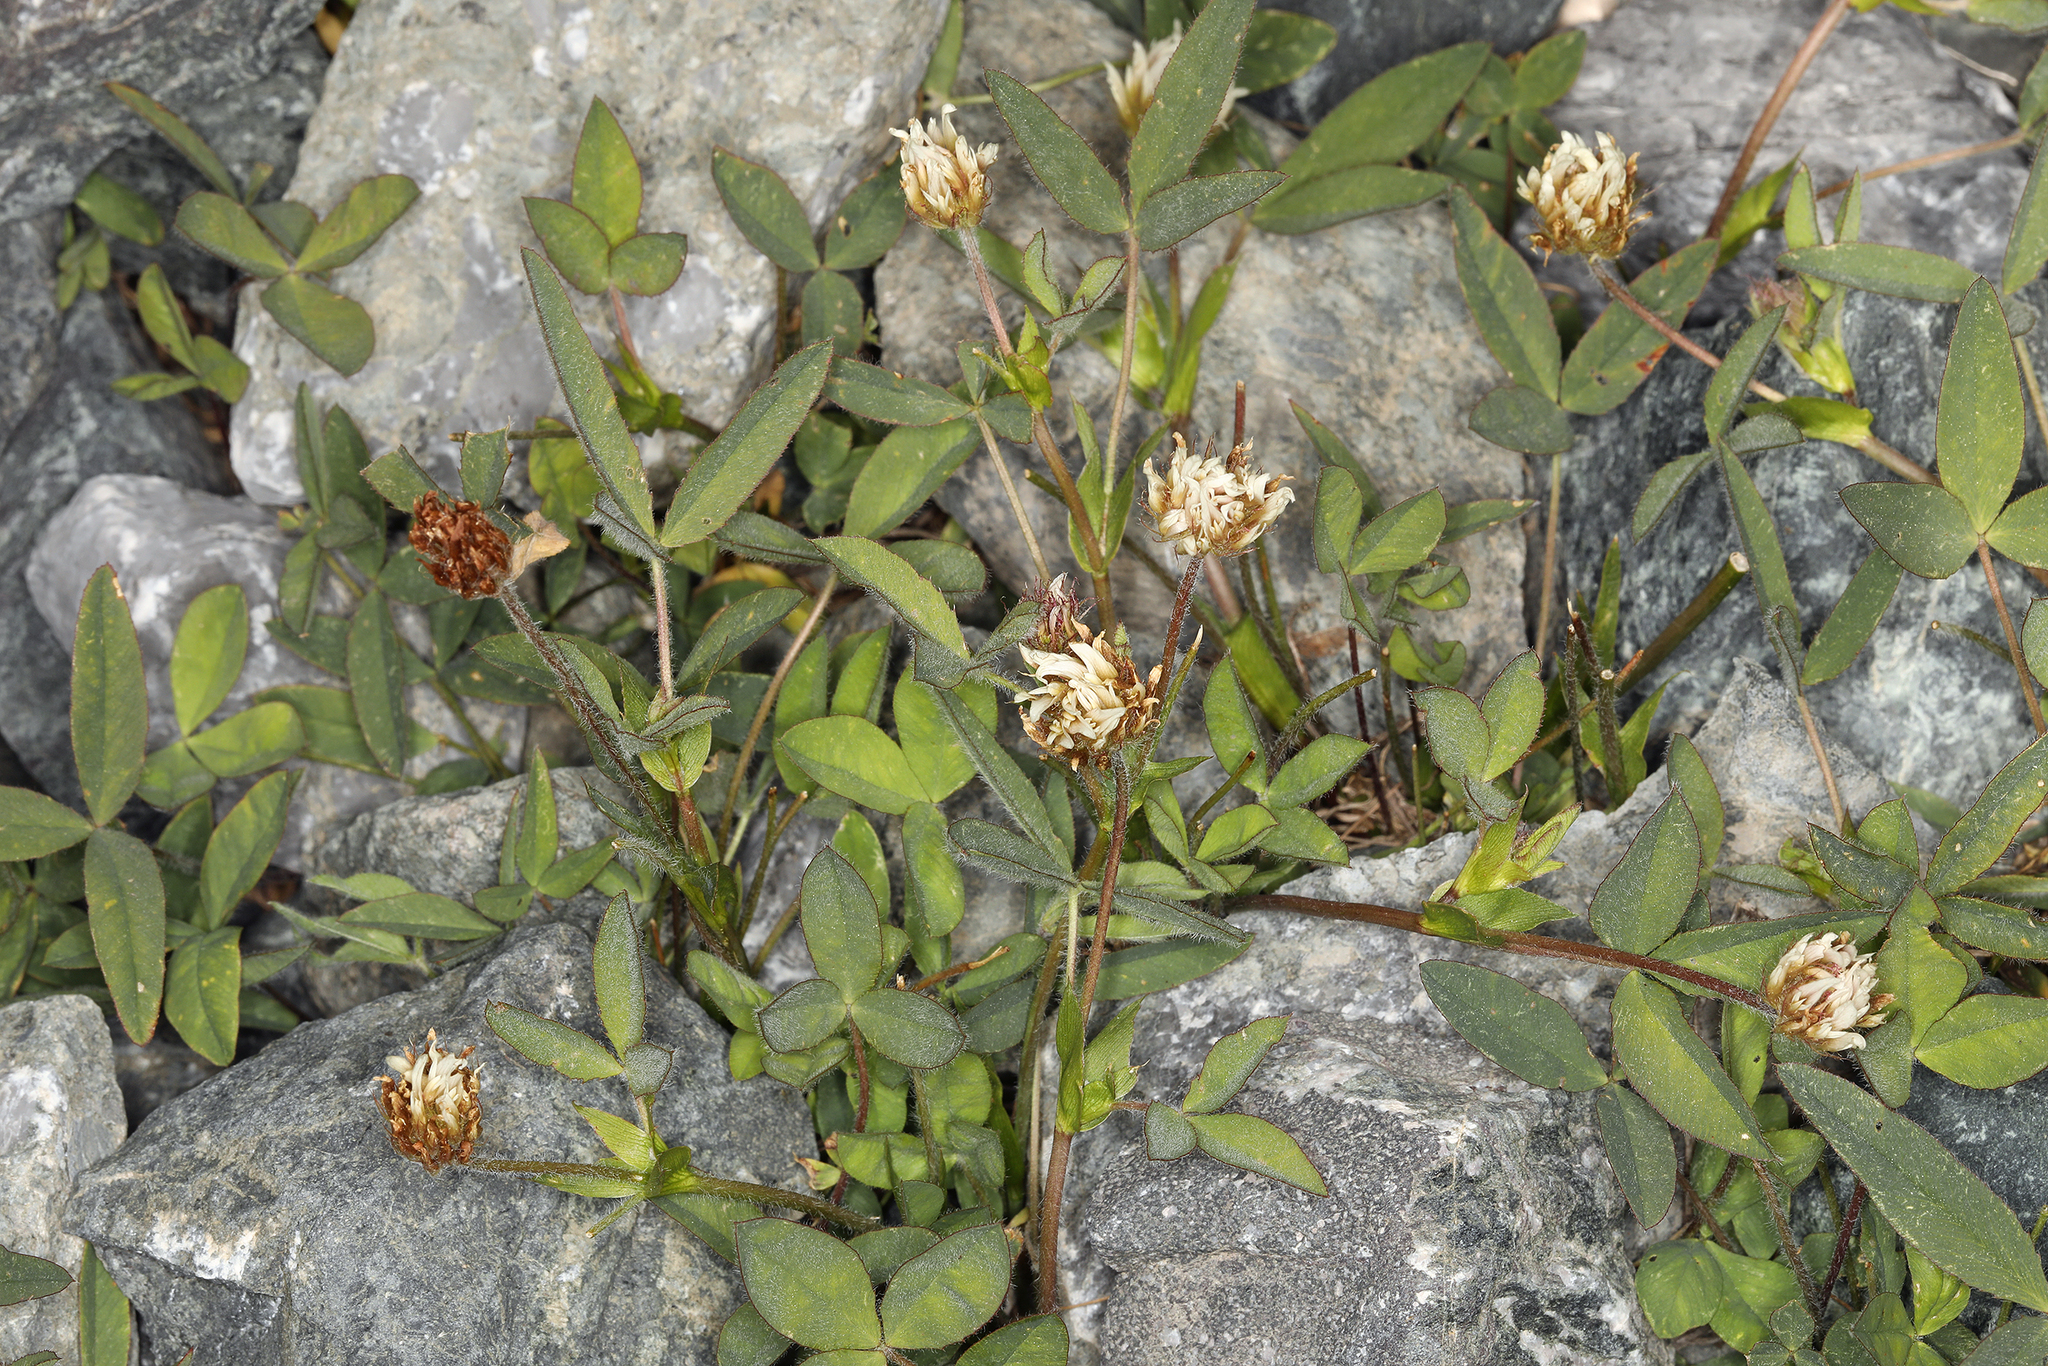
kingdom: Plantae
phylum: Tracheophyta
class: Magnoliopsida
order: Fabales
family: Fabaceae
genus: Trifolium
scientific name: Trifolium longipes
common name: Long-stalk clover
